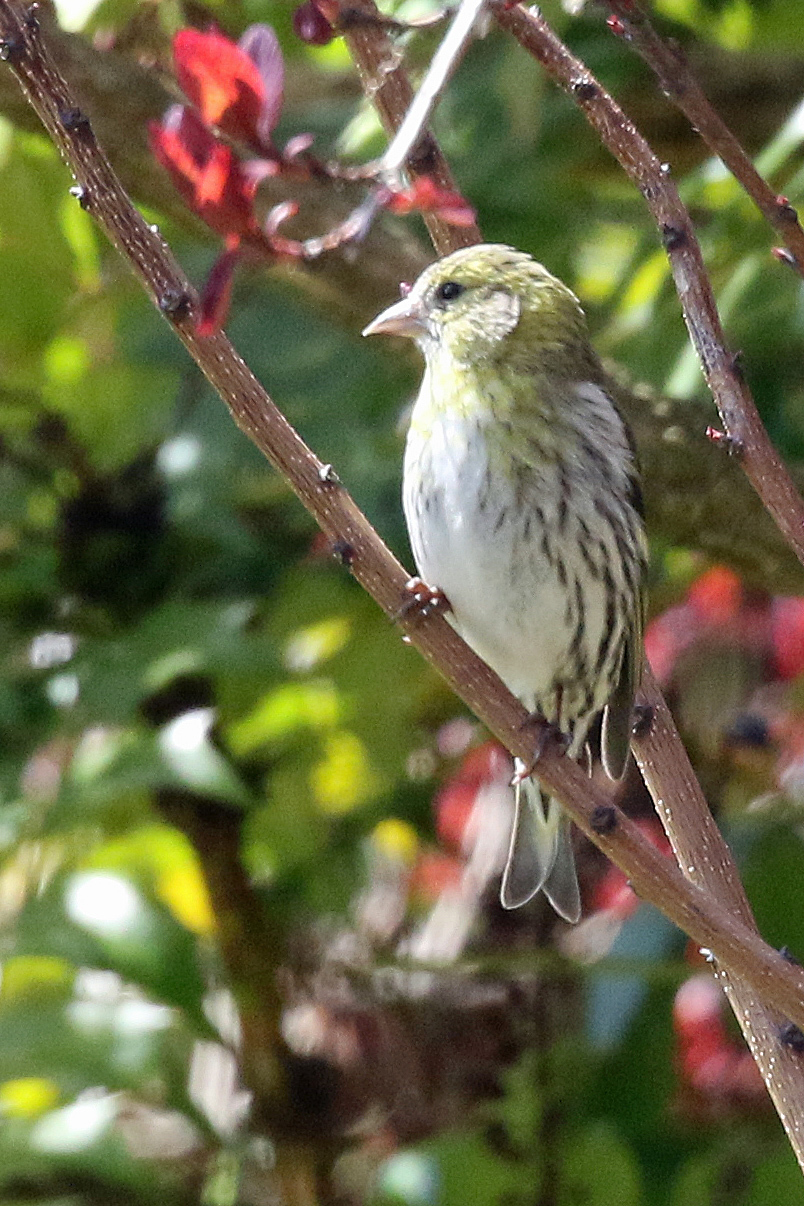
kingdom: Animalia
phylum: Chordata
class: Aves
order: Passeriformes
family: Fringillidae
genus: Spinus
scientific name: Spinus spinus
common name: Eurasian siskin
